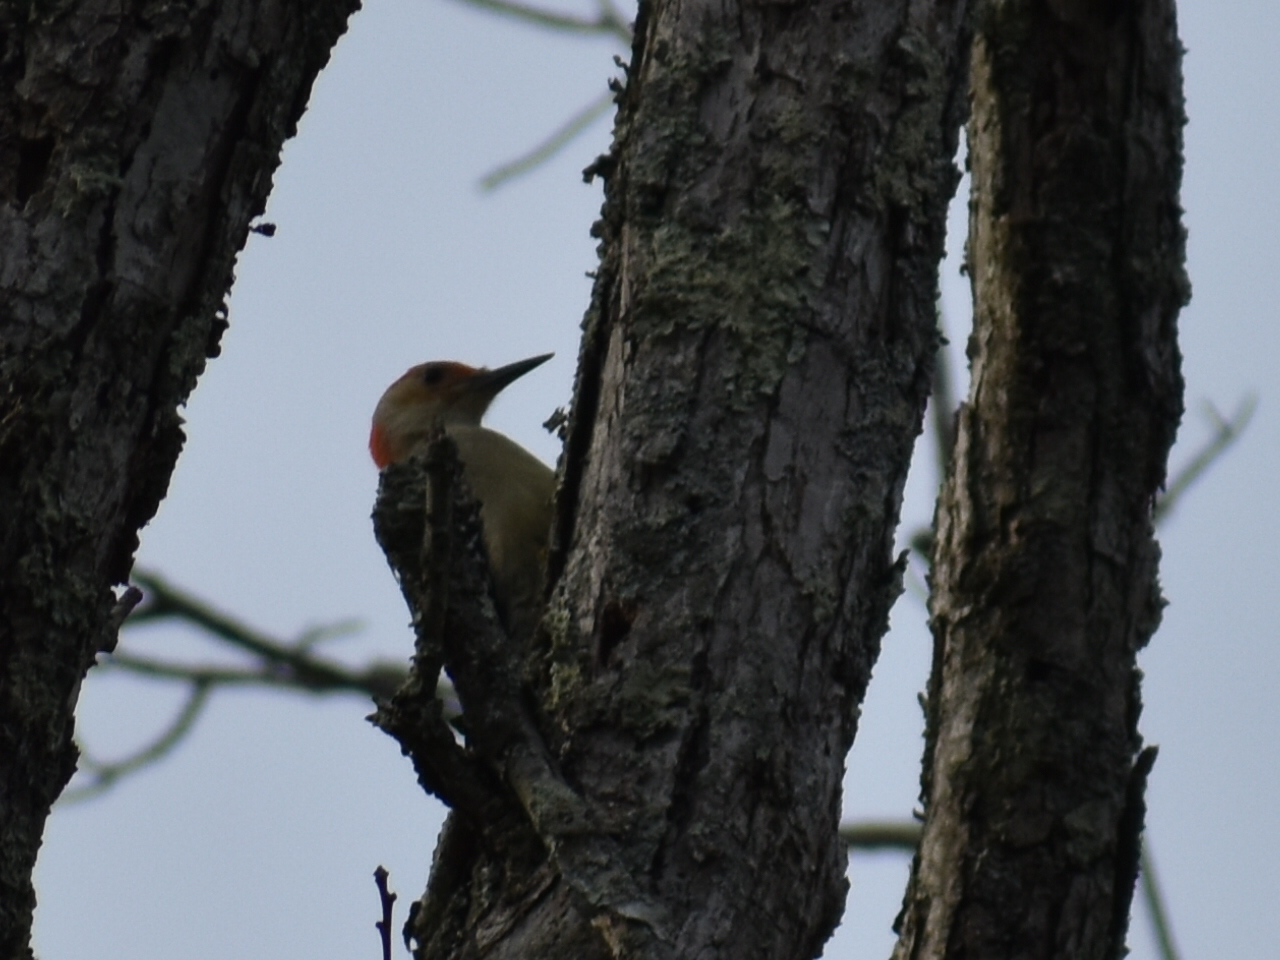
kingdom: Animalia
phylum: Chordata
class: Aves
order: Piciformes
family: Picidae
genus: Melanerpes
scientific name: Melanerpes carolinus
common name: Red-bellied woodpecker
